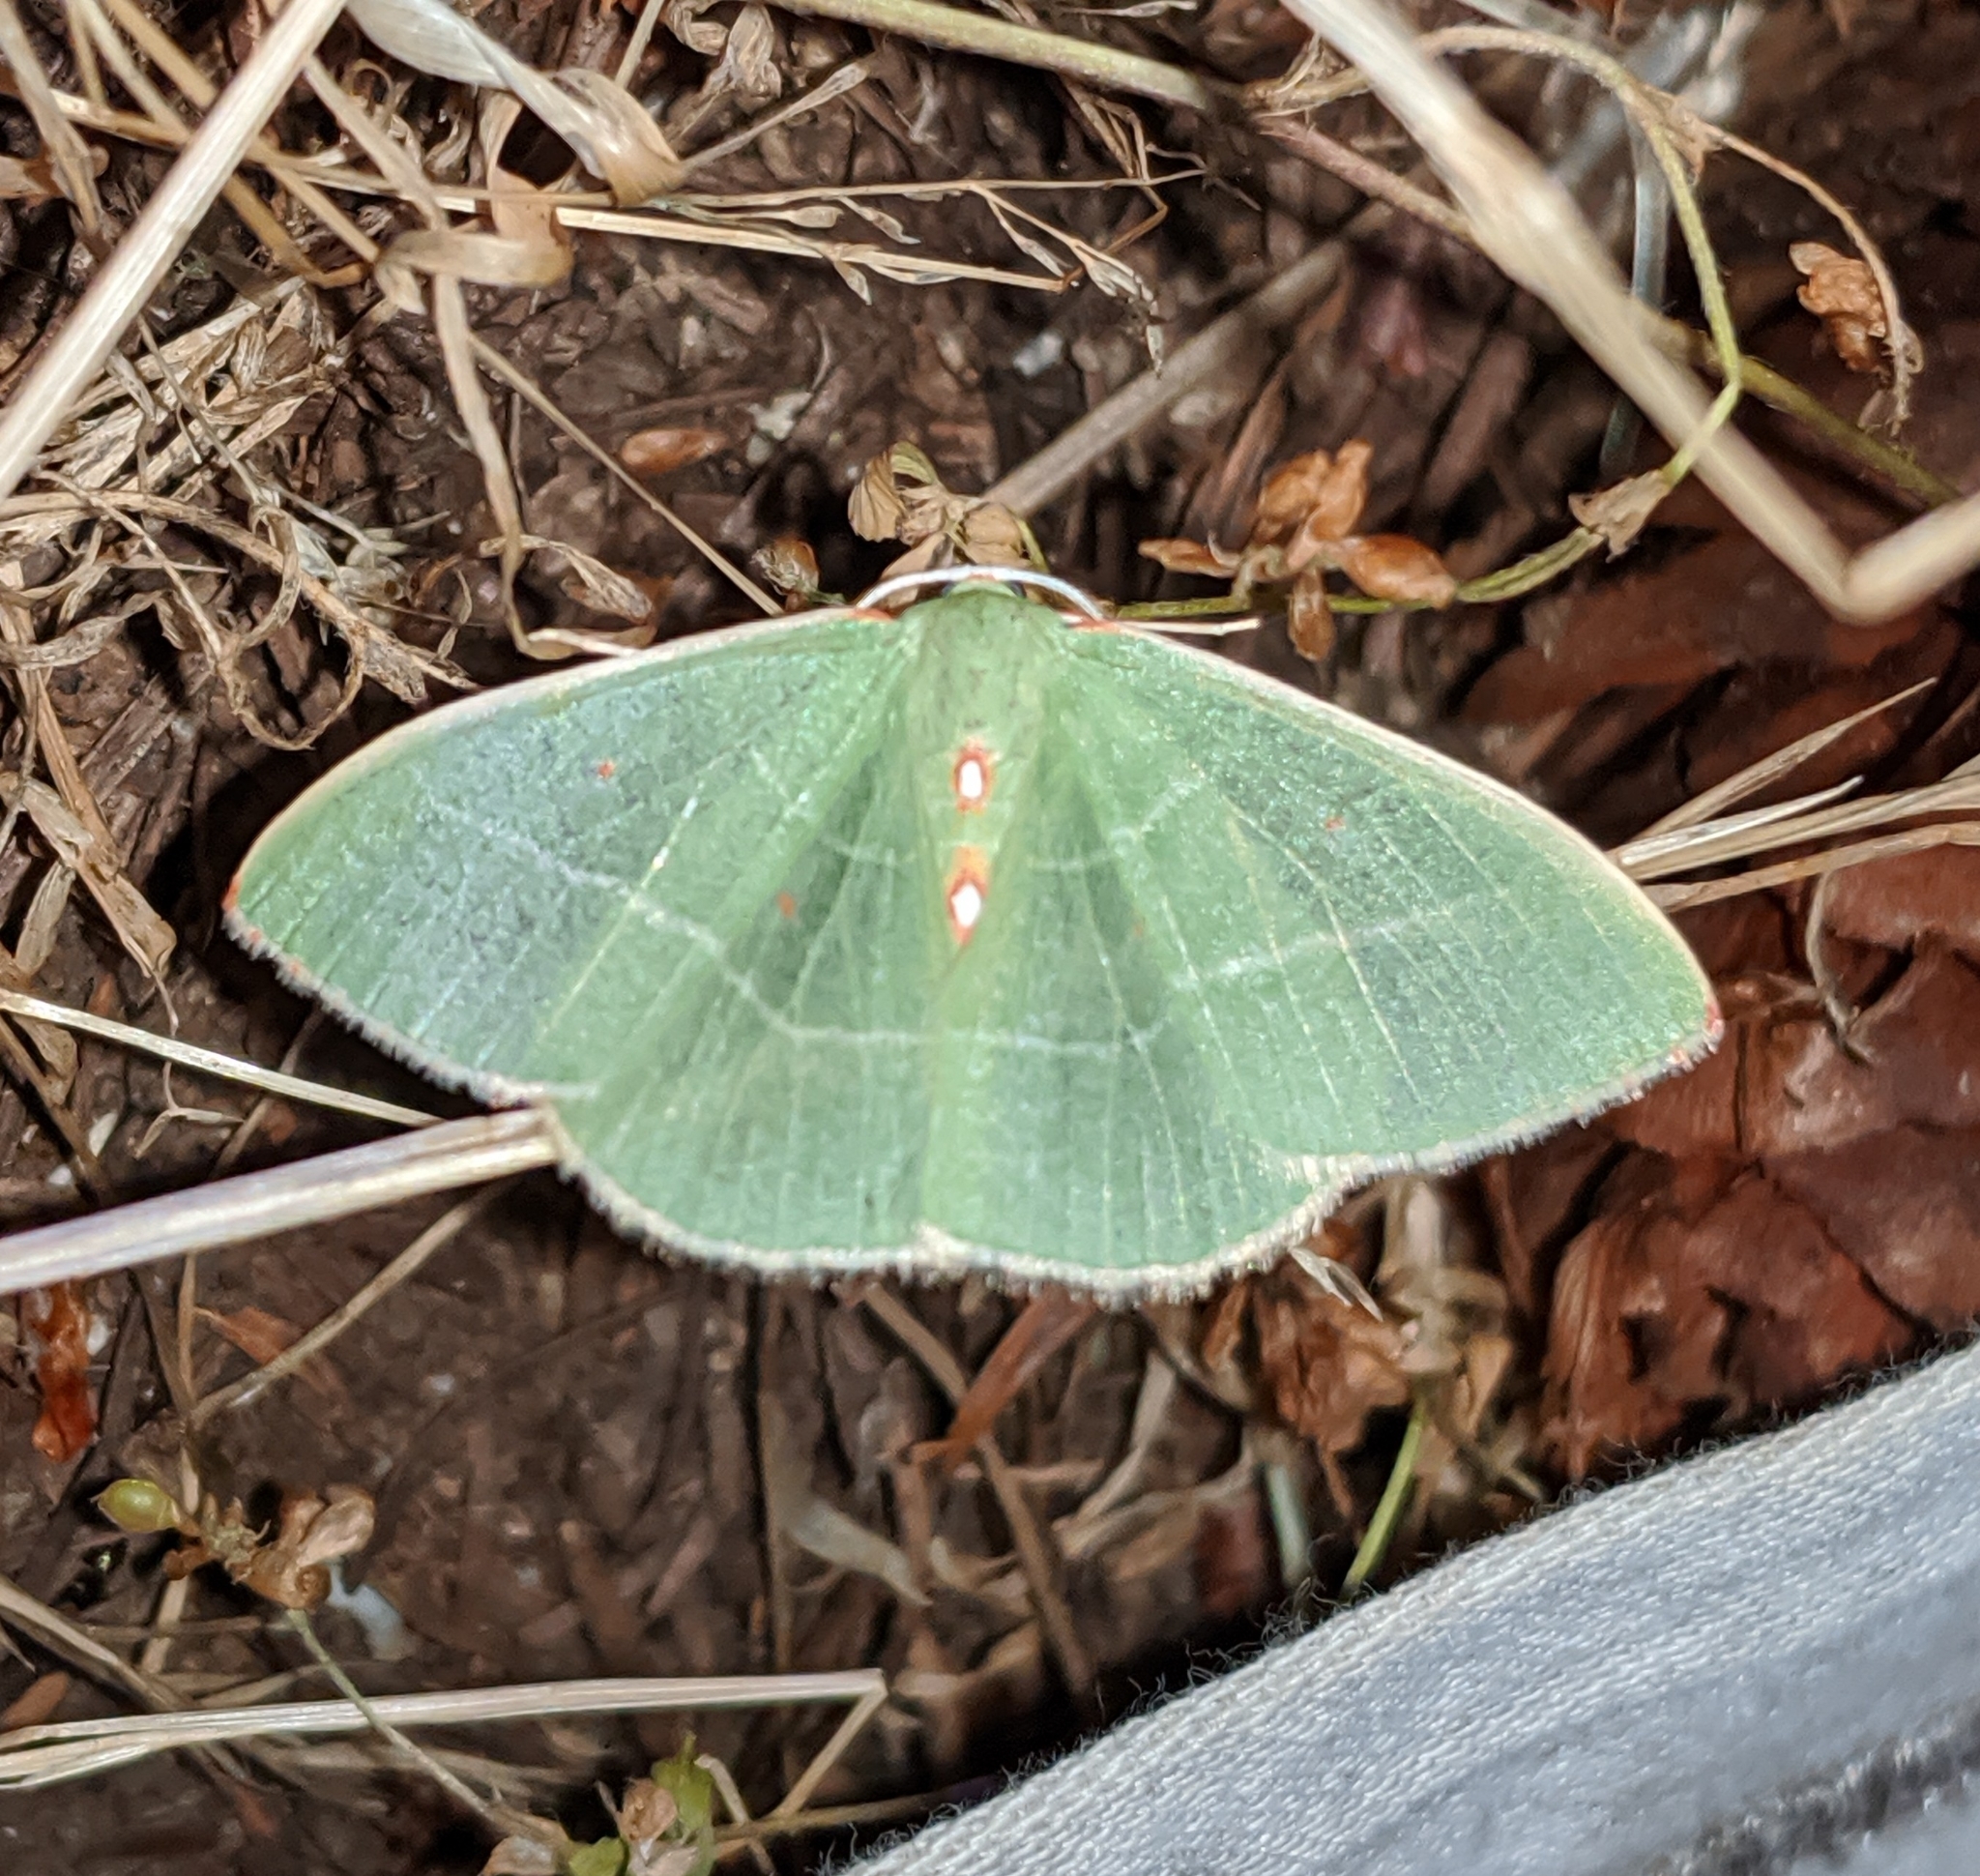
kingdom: Animalia
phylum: Arthropoda
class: Insecta
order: Lepidoptera
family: Geometridae
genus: Nemoria
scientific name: Nemoria darwiniata
